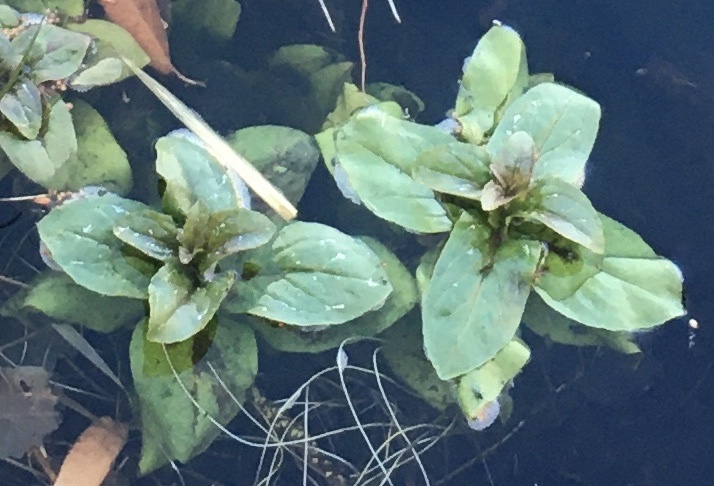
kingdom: Plantae
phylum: Tracheophyta
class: Magnoliopsida
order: Lamiales
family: Plantaginaceae
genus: Veronica
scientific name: Veronica anagallis-aquatica
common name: Water speedwell
